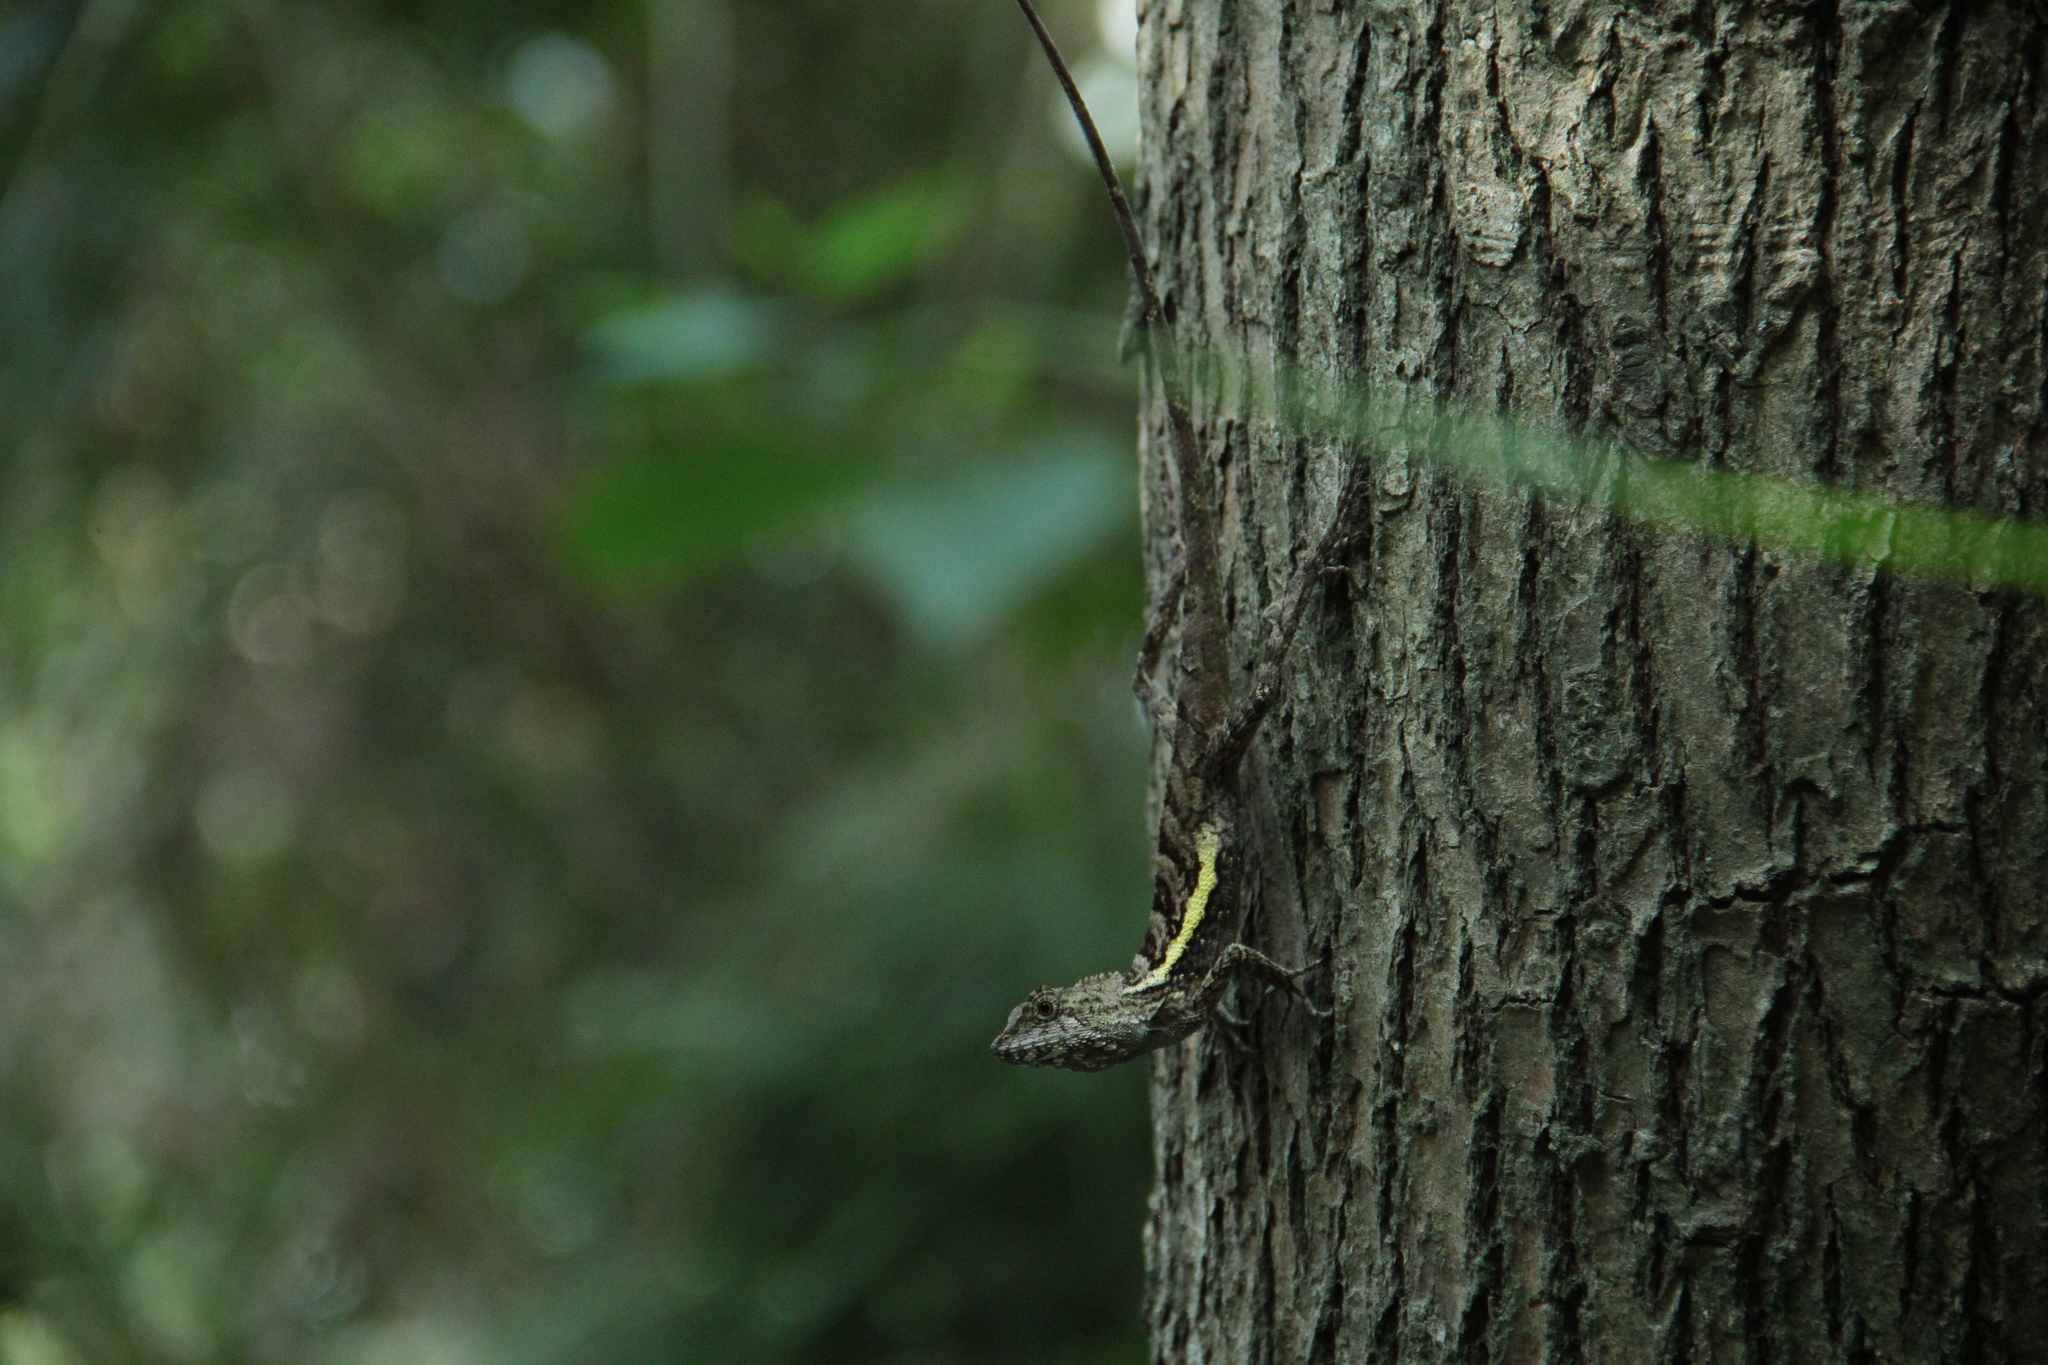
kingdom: Animalia
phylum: Chordata
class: Squamata
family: Agamidae
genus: Diploderma
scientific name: Diploderma swinhonis
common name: Taiwan japalure
